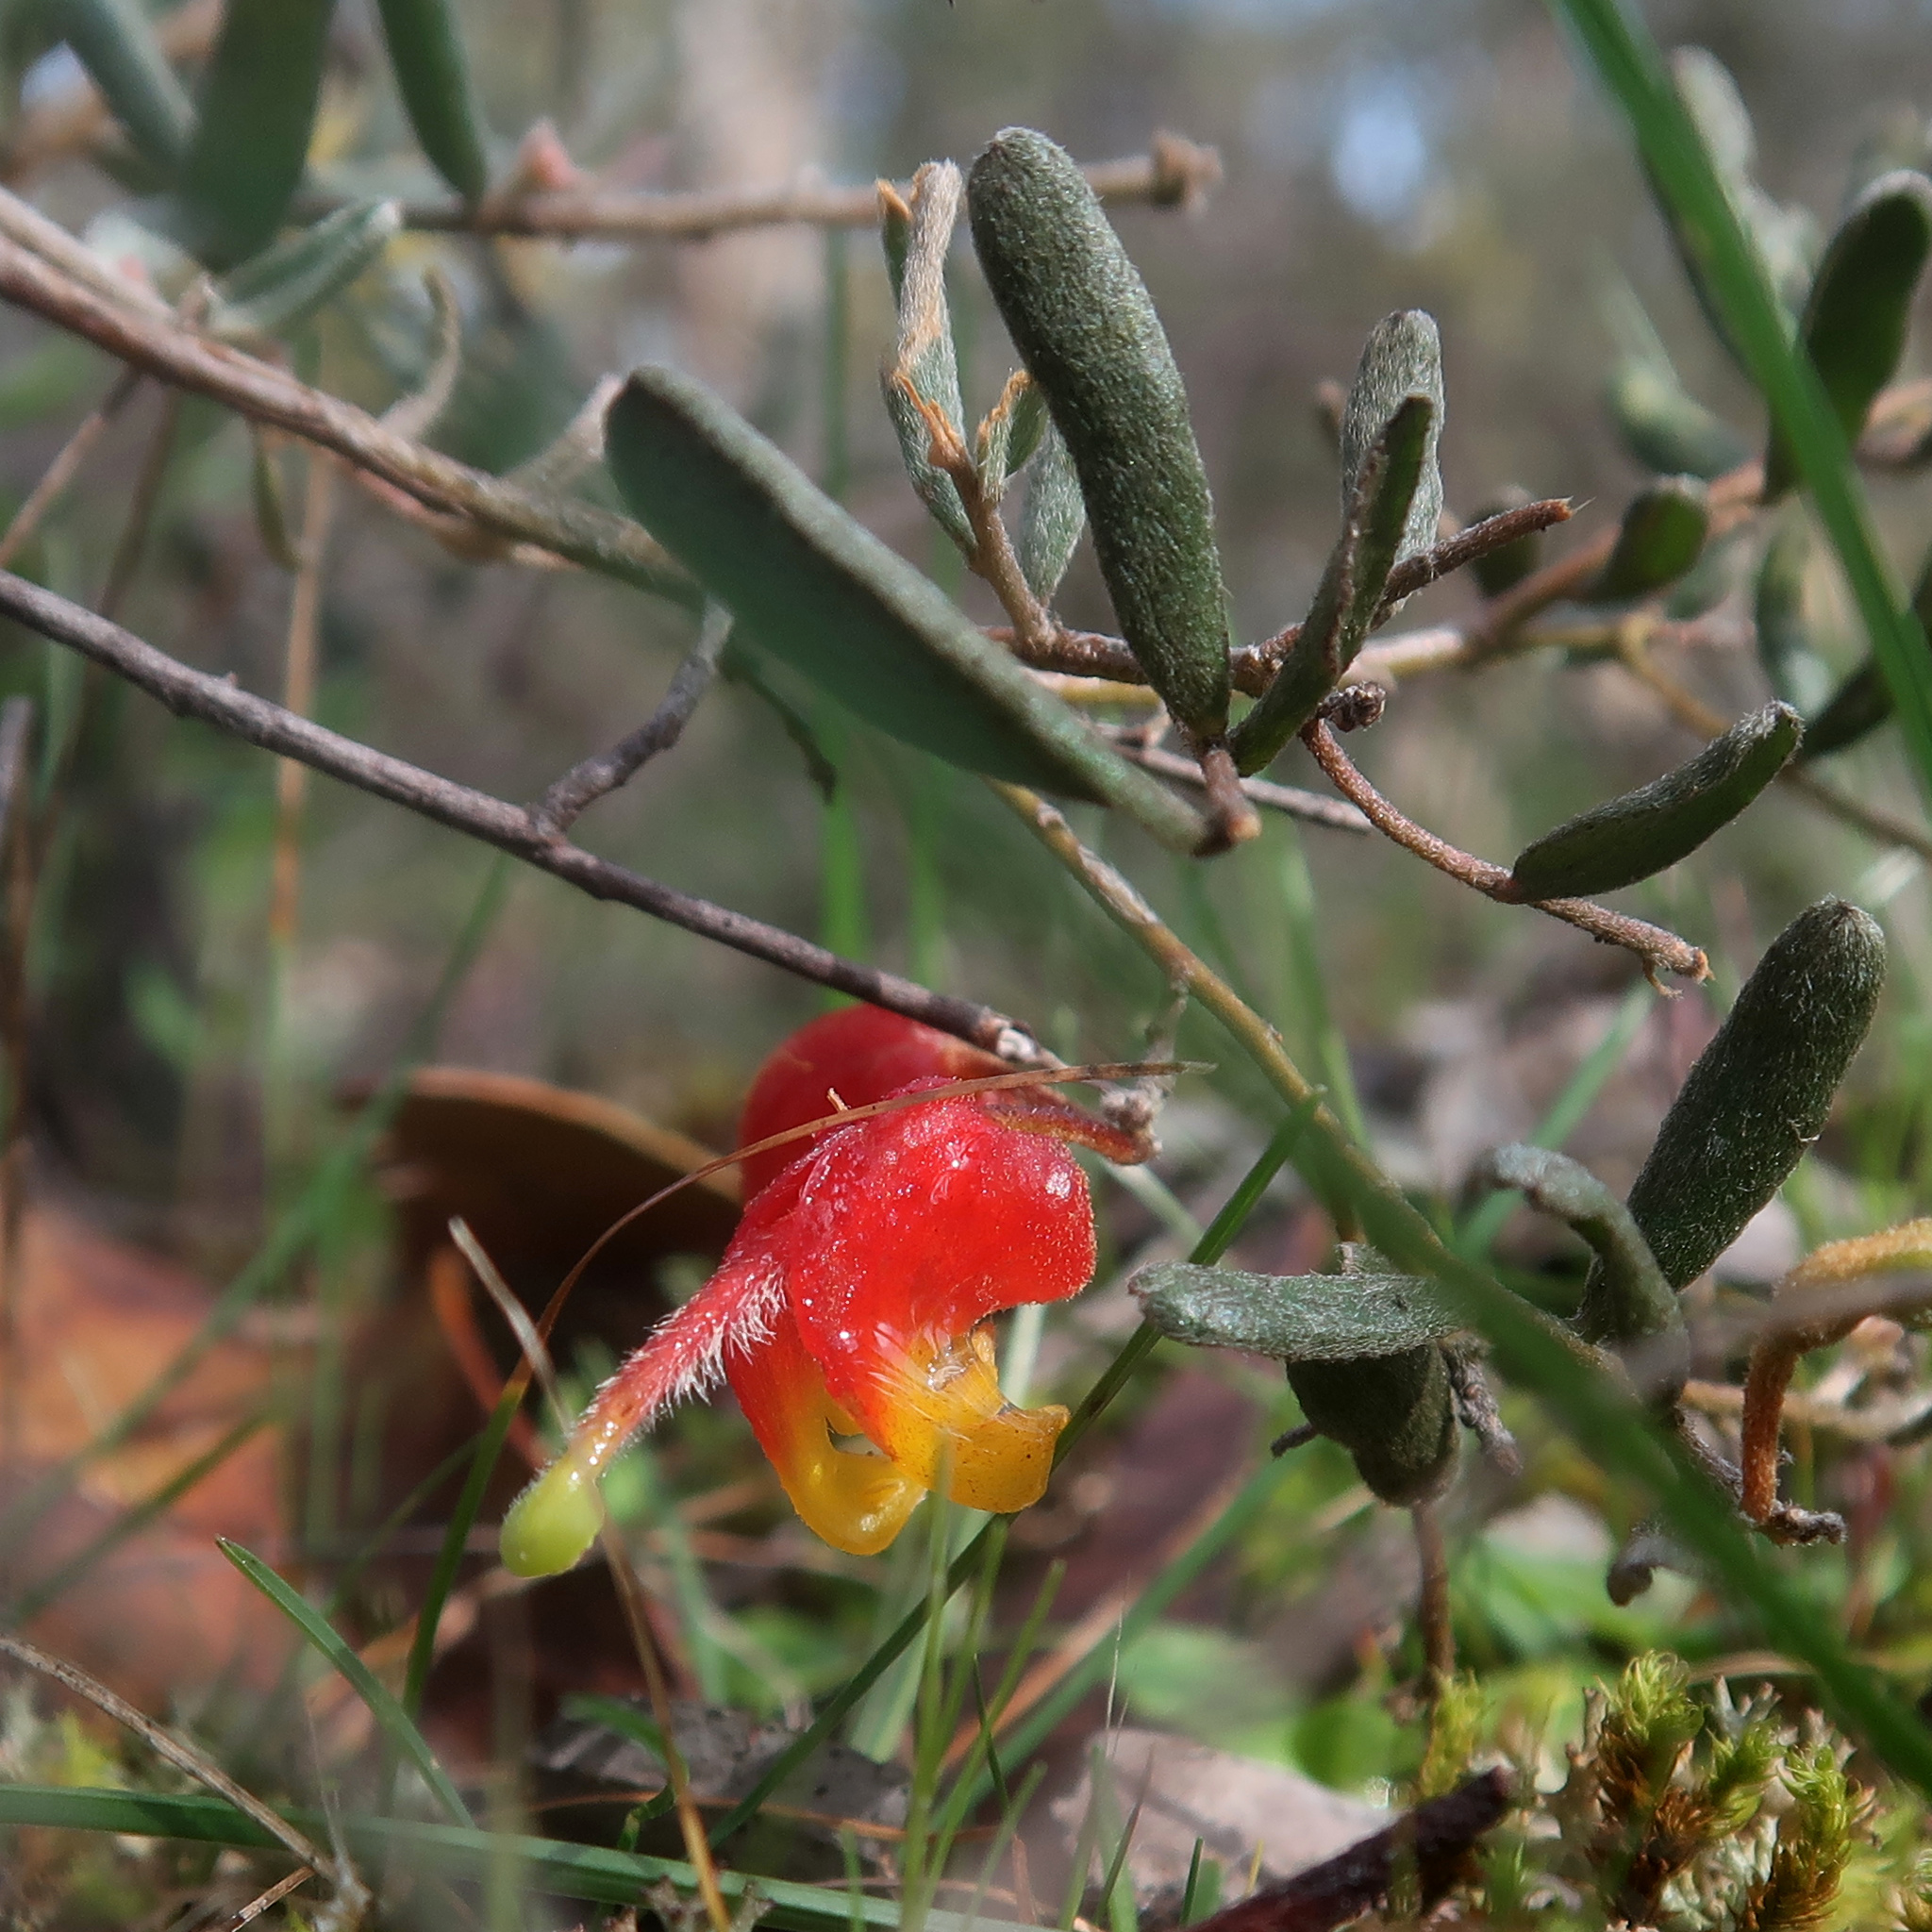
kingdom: Plantae
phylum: Tracheophyta
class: Magnoliopsida
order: Proteales
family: Proteaceae
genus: Grevillea
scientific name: Grevillea alpina
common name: Catclaws grevillea
